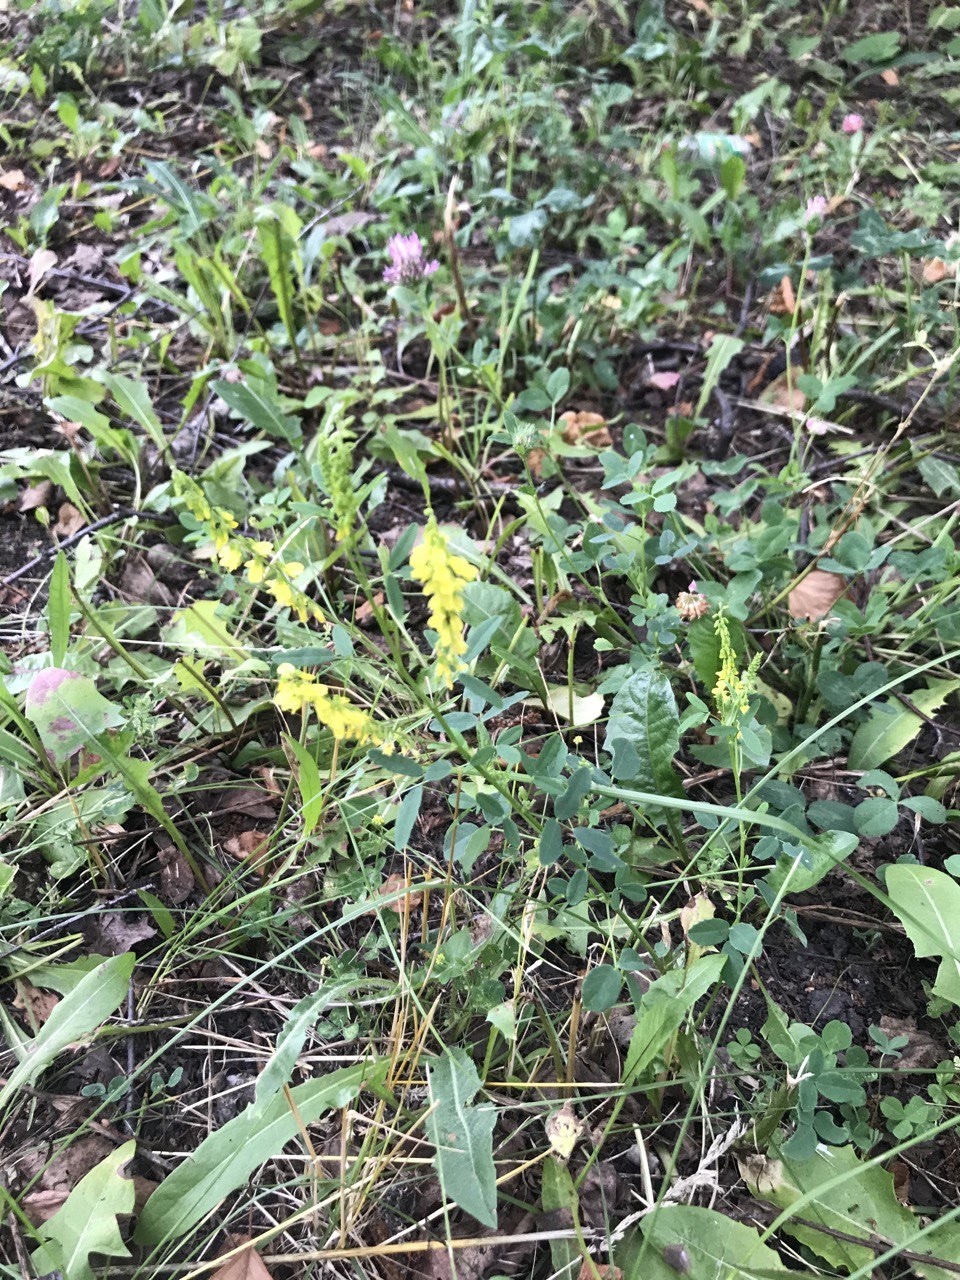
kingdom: Plantae
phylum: Tracheophyta
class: Magnoliopsida
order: Fabales
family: Fabaceae
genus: Melilotus
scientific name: Melilotus officinalis
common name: Sweetclover
